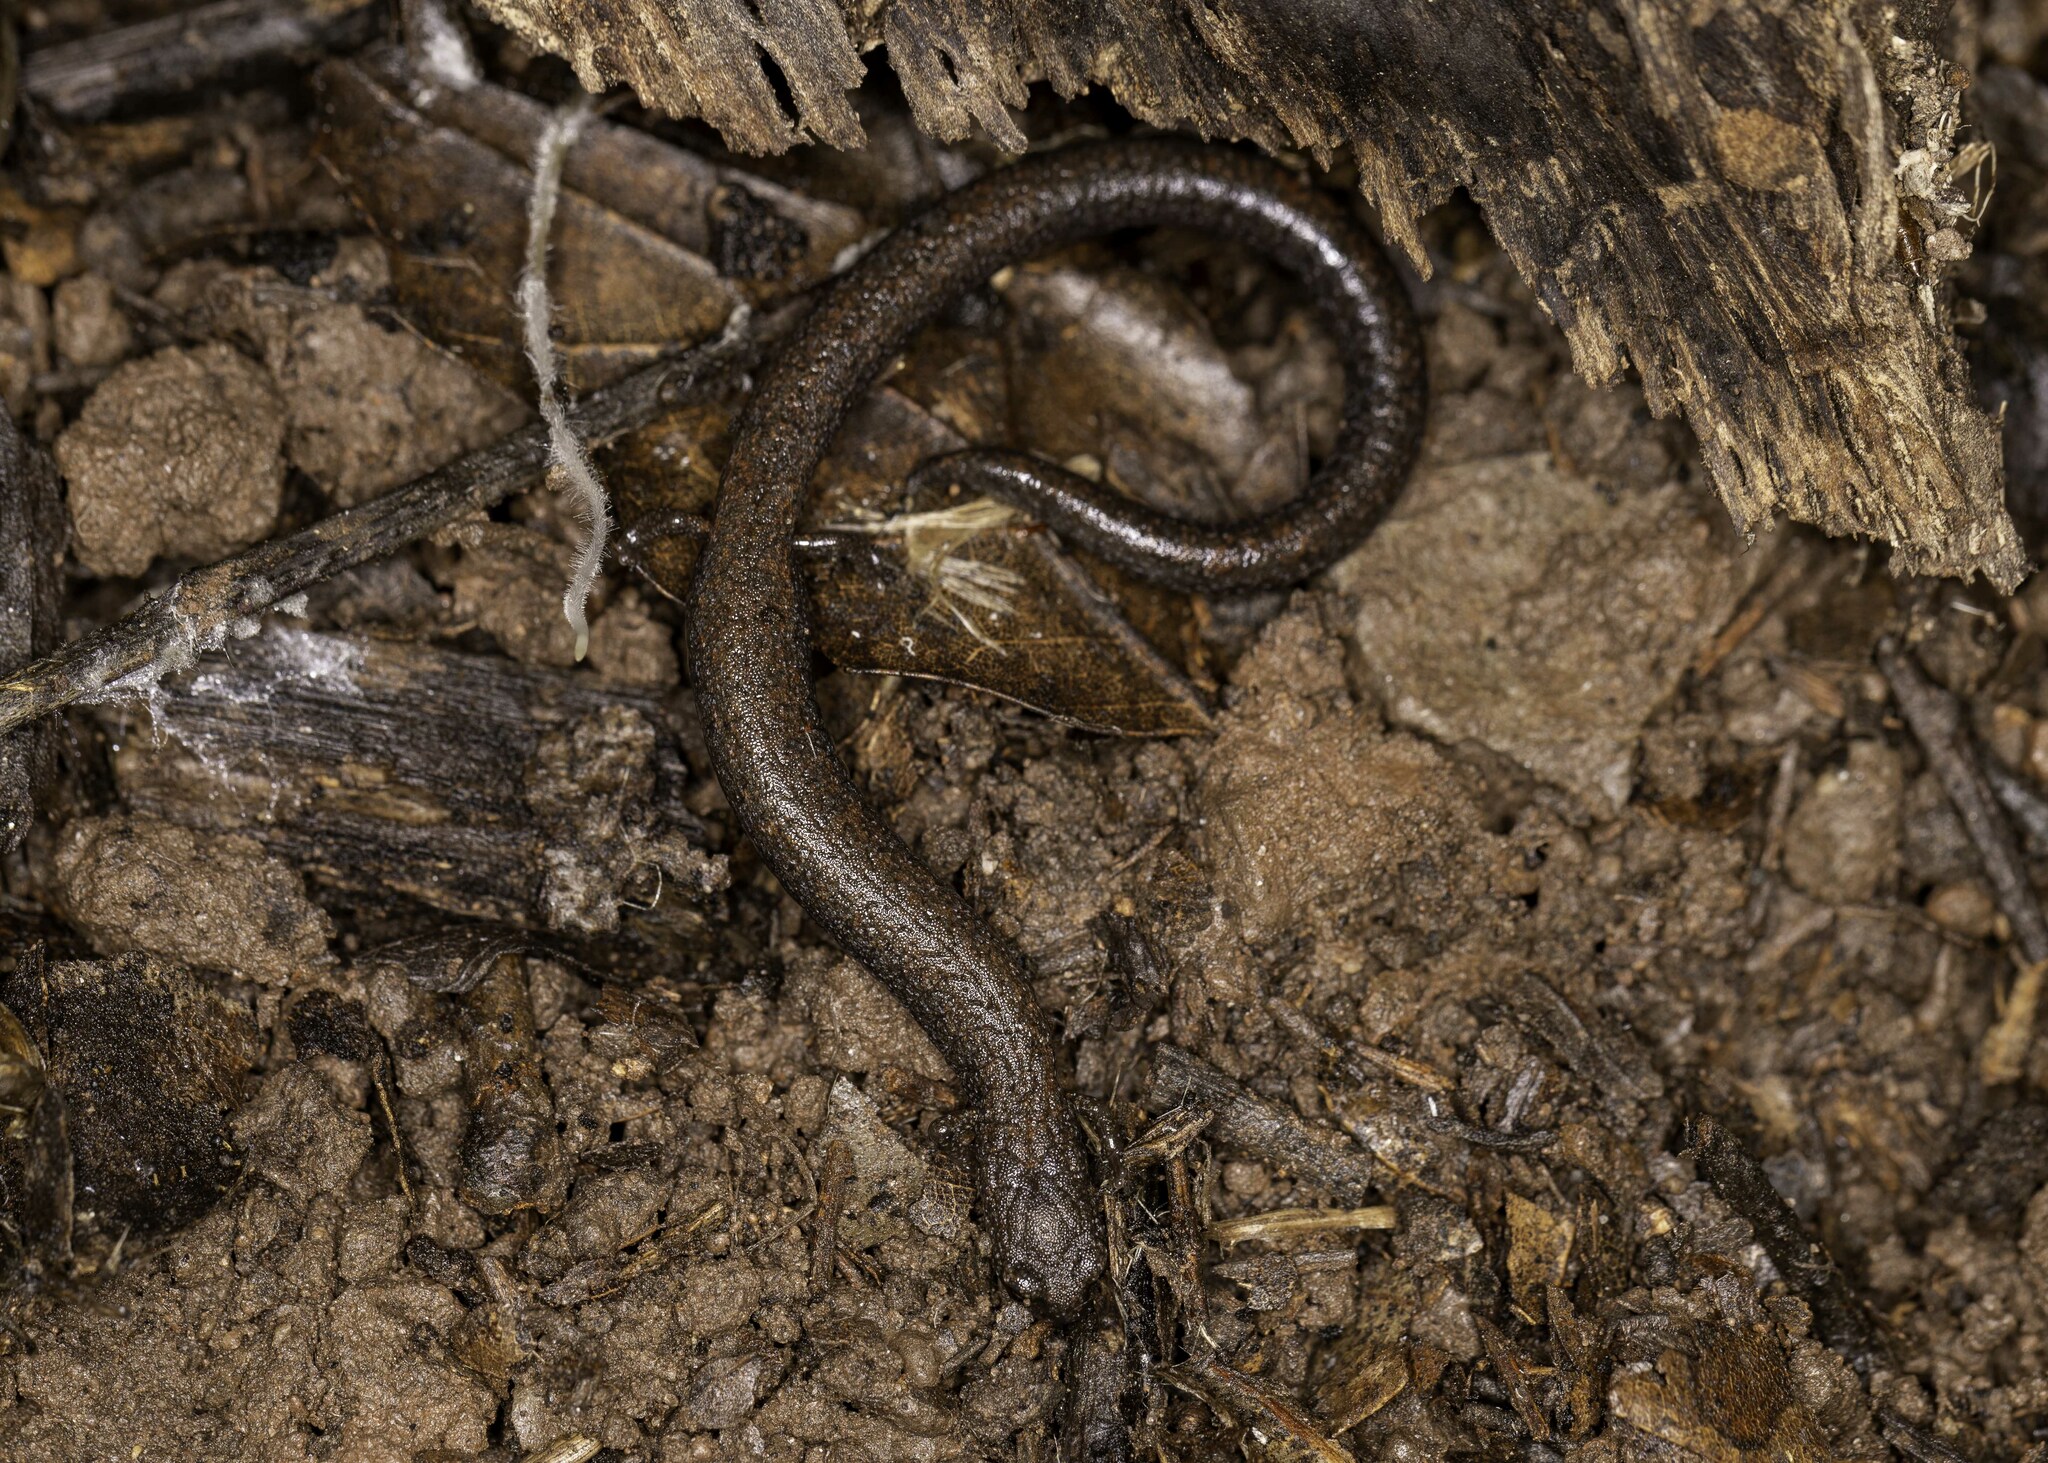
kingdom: Animalia
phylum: Chordata
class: Amphibia
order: Caudata
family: Plethodontidae
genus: Batrachoseps
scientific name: Batrachoseps nigriventris
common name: Black-bellied slender salamander
